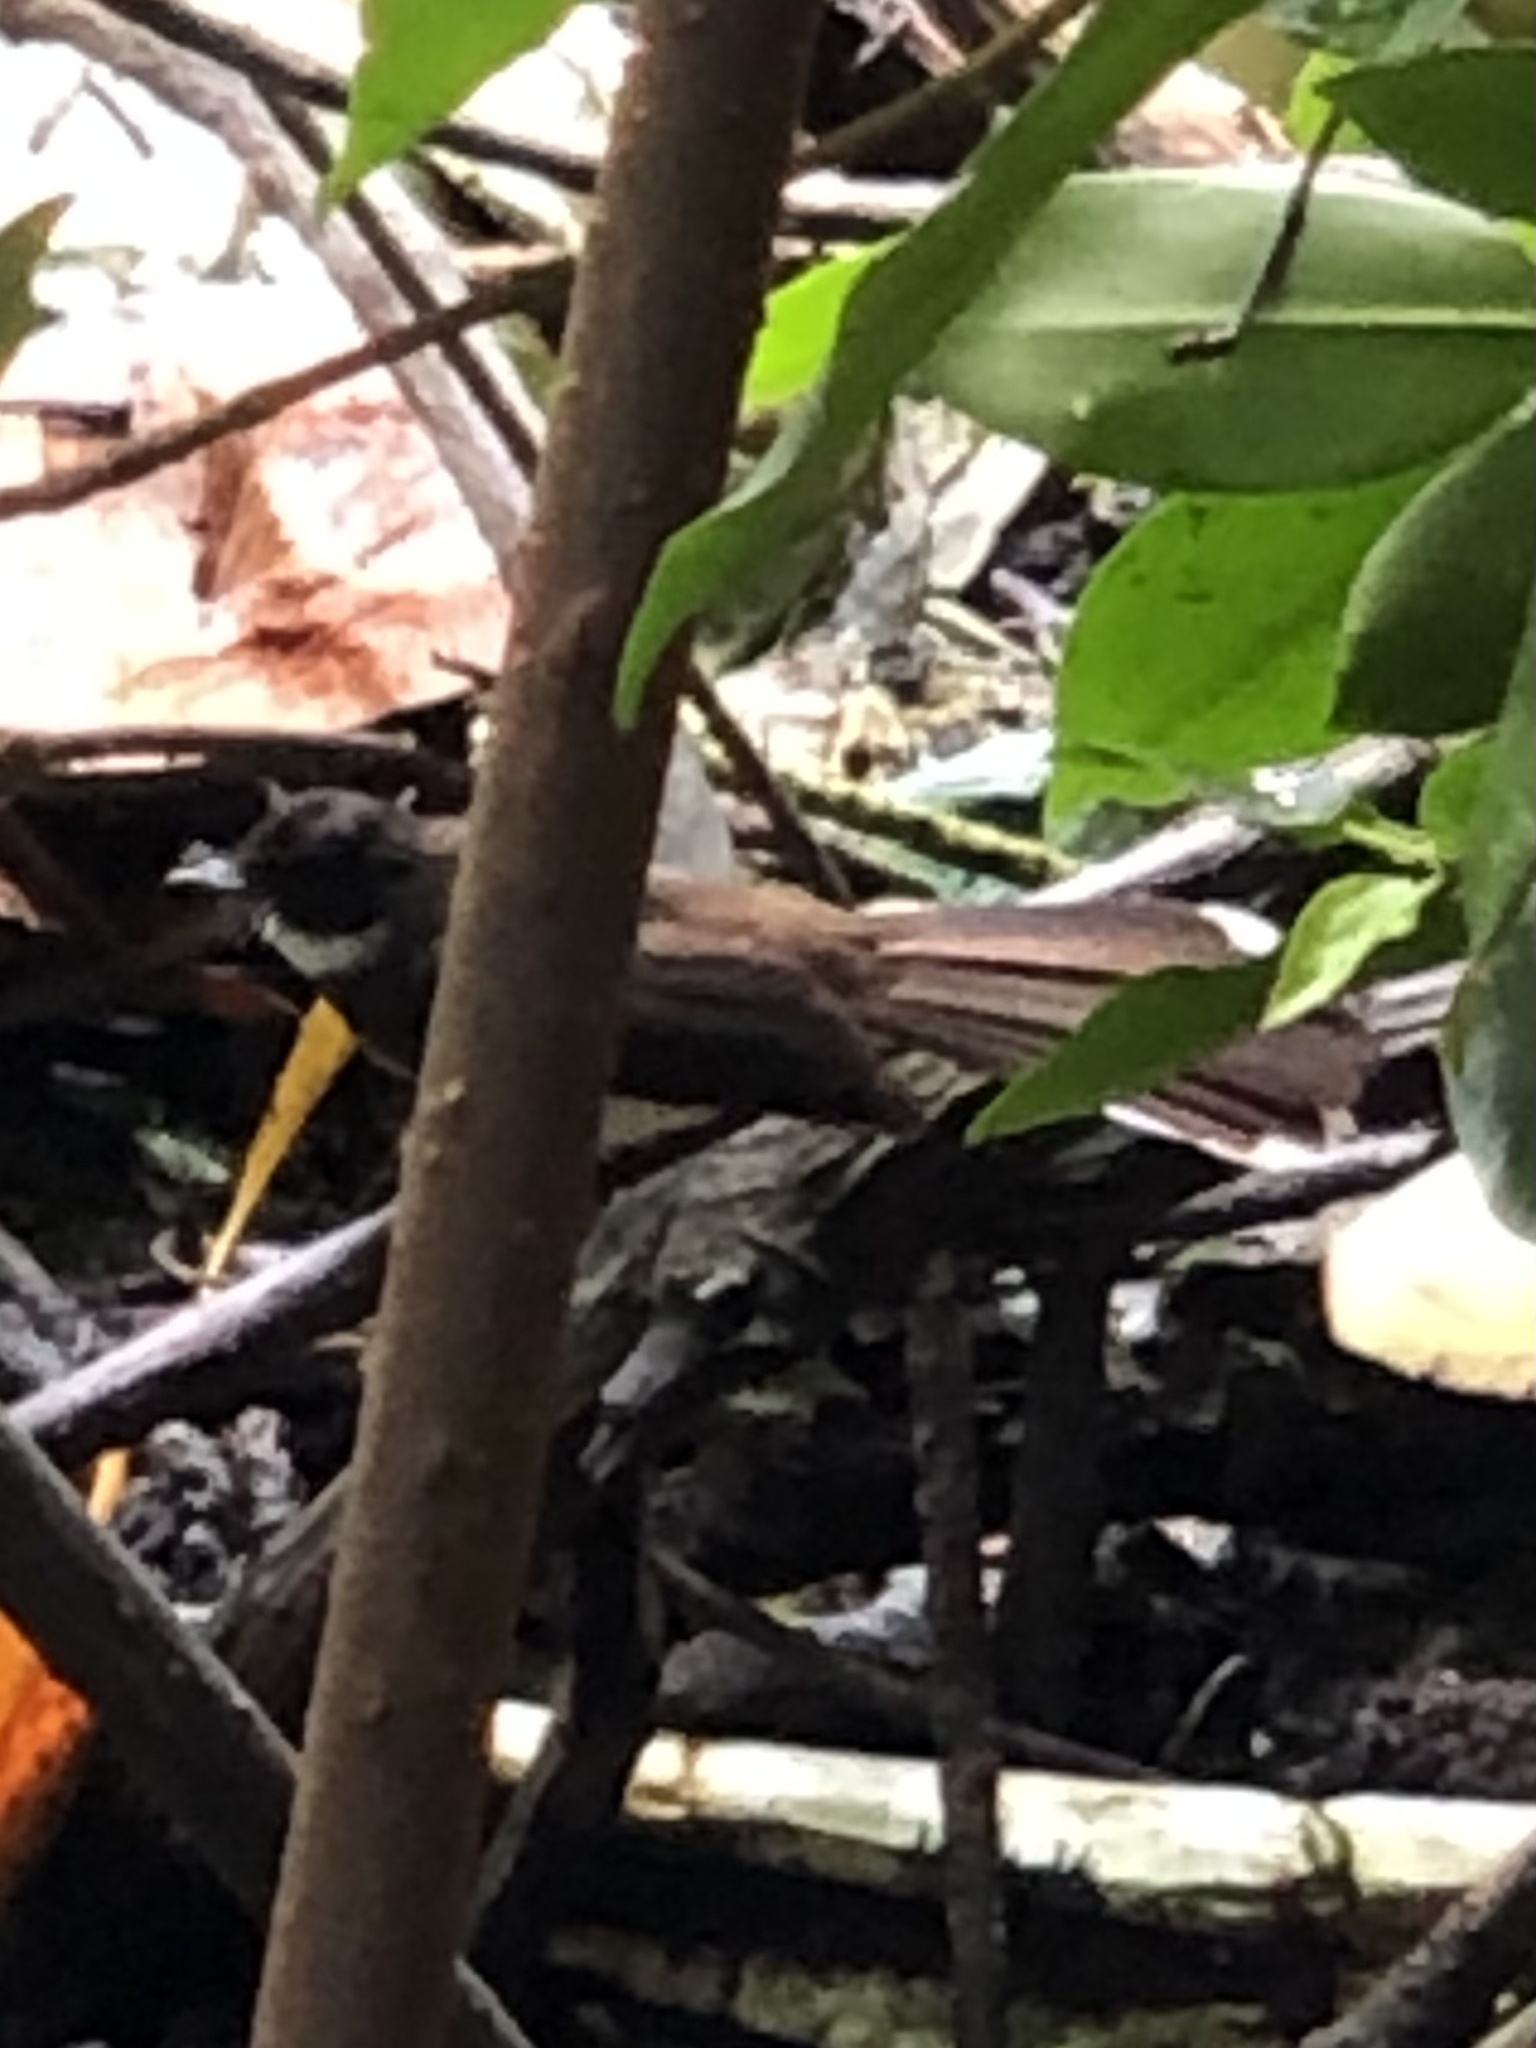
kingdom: Animalia
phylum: Chordata
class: Aves
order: Passeriformes
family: Rhipiduridae
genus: Rhipidura
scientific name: Rhipidura javanica
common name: Pied fantail
